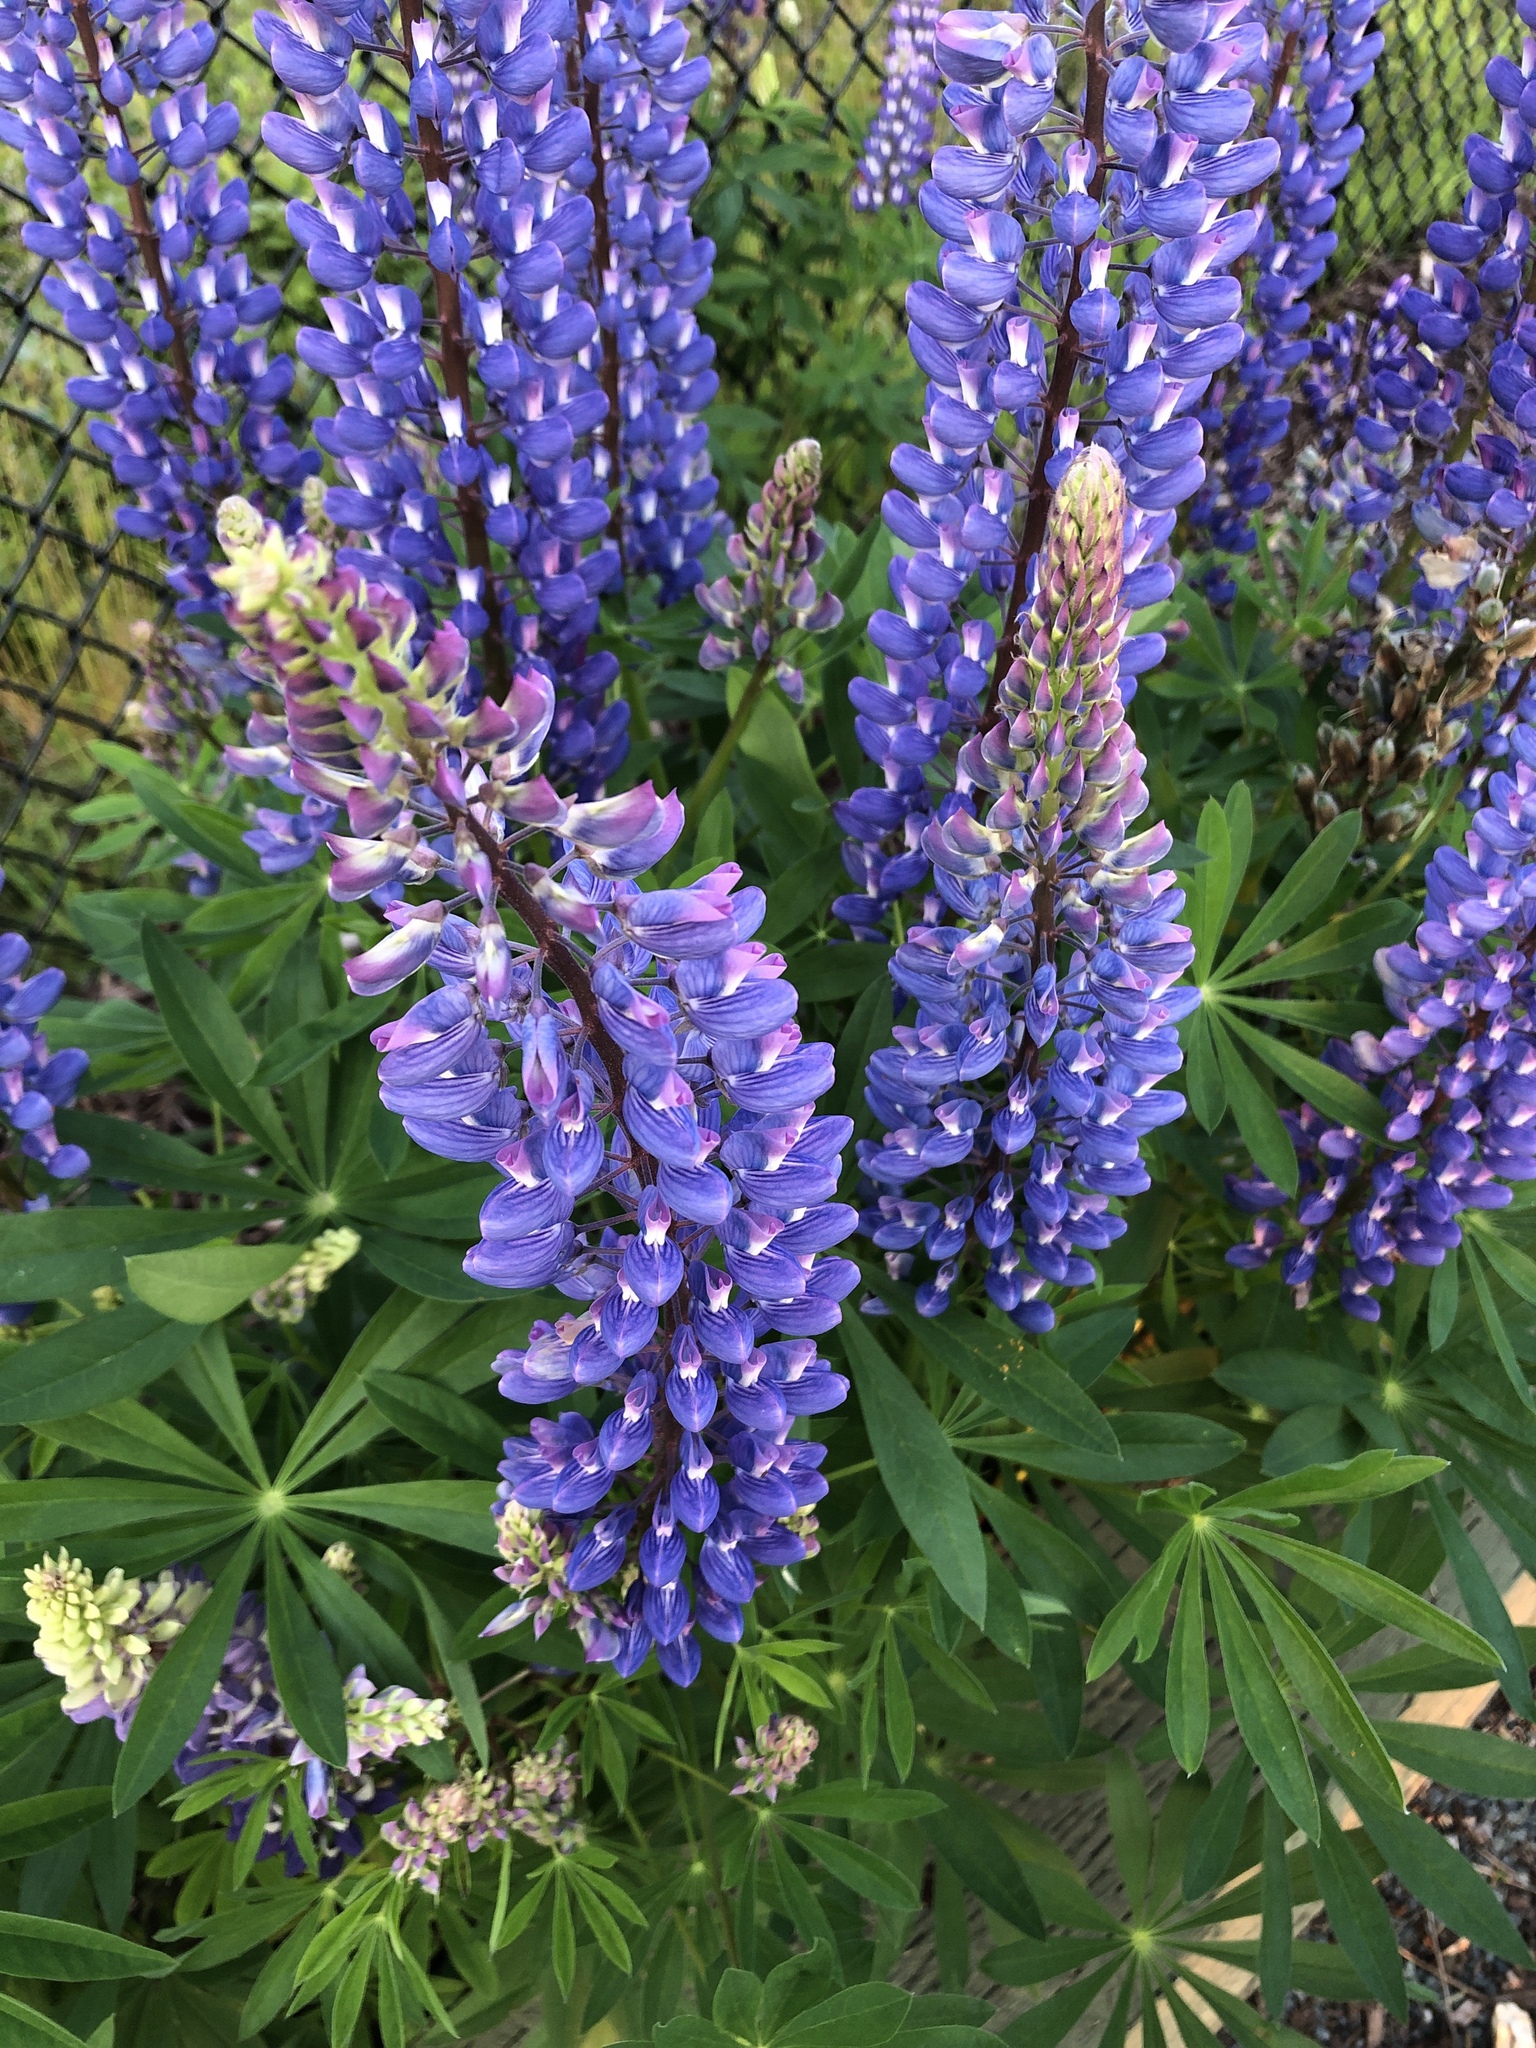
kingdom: Plantae
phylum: Tracheophyta
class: Magnoliopsida
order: Fabales
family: Fabaceae
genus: Lupinus
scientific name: Lupinus polyphyllus
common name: Garden lupin
